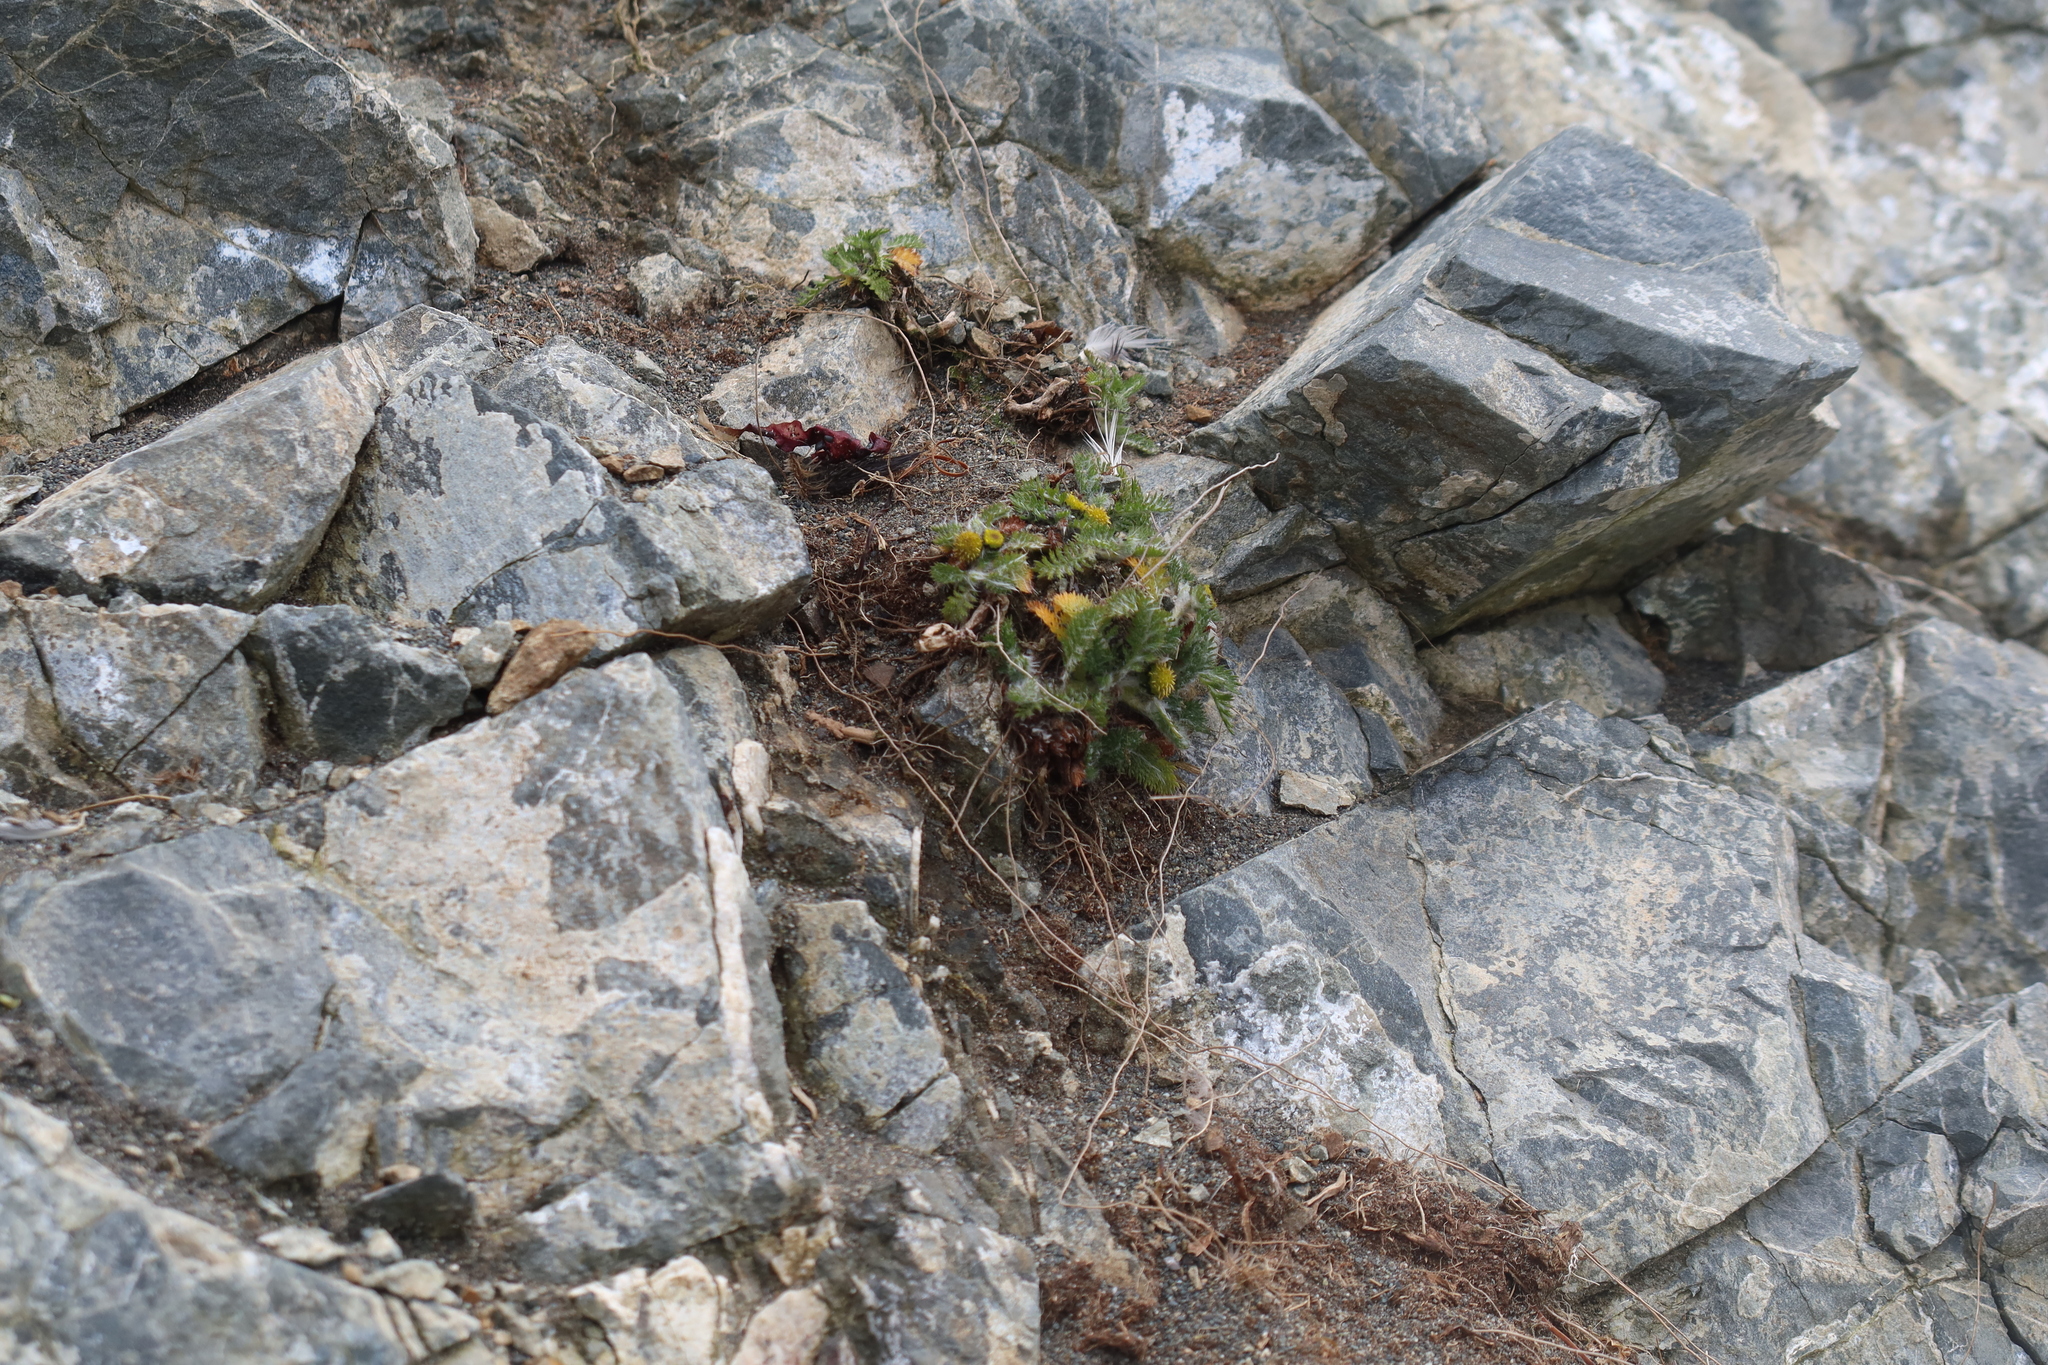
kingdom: Plantae
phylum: Tracheophyta
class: Magnoliopsida
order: Asterales
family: Asteraceae
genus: Leptinella
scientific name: Leptinella plumosa
